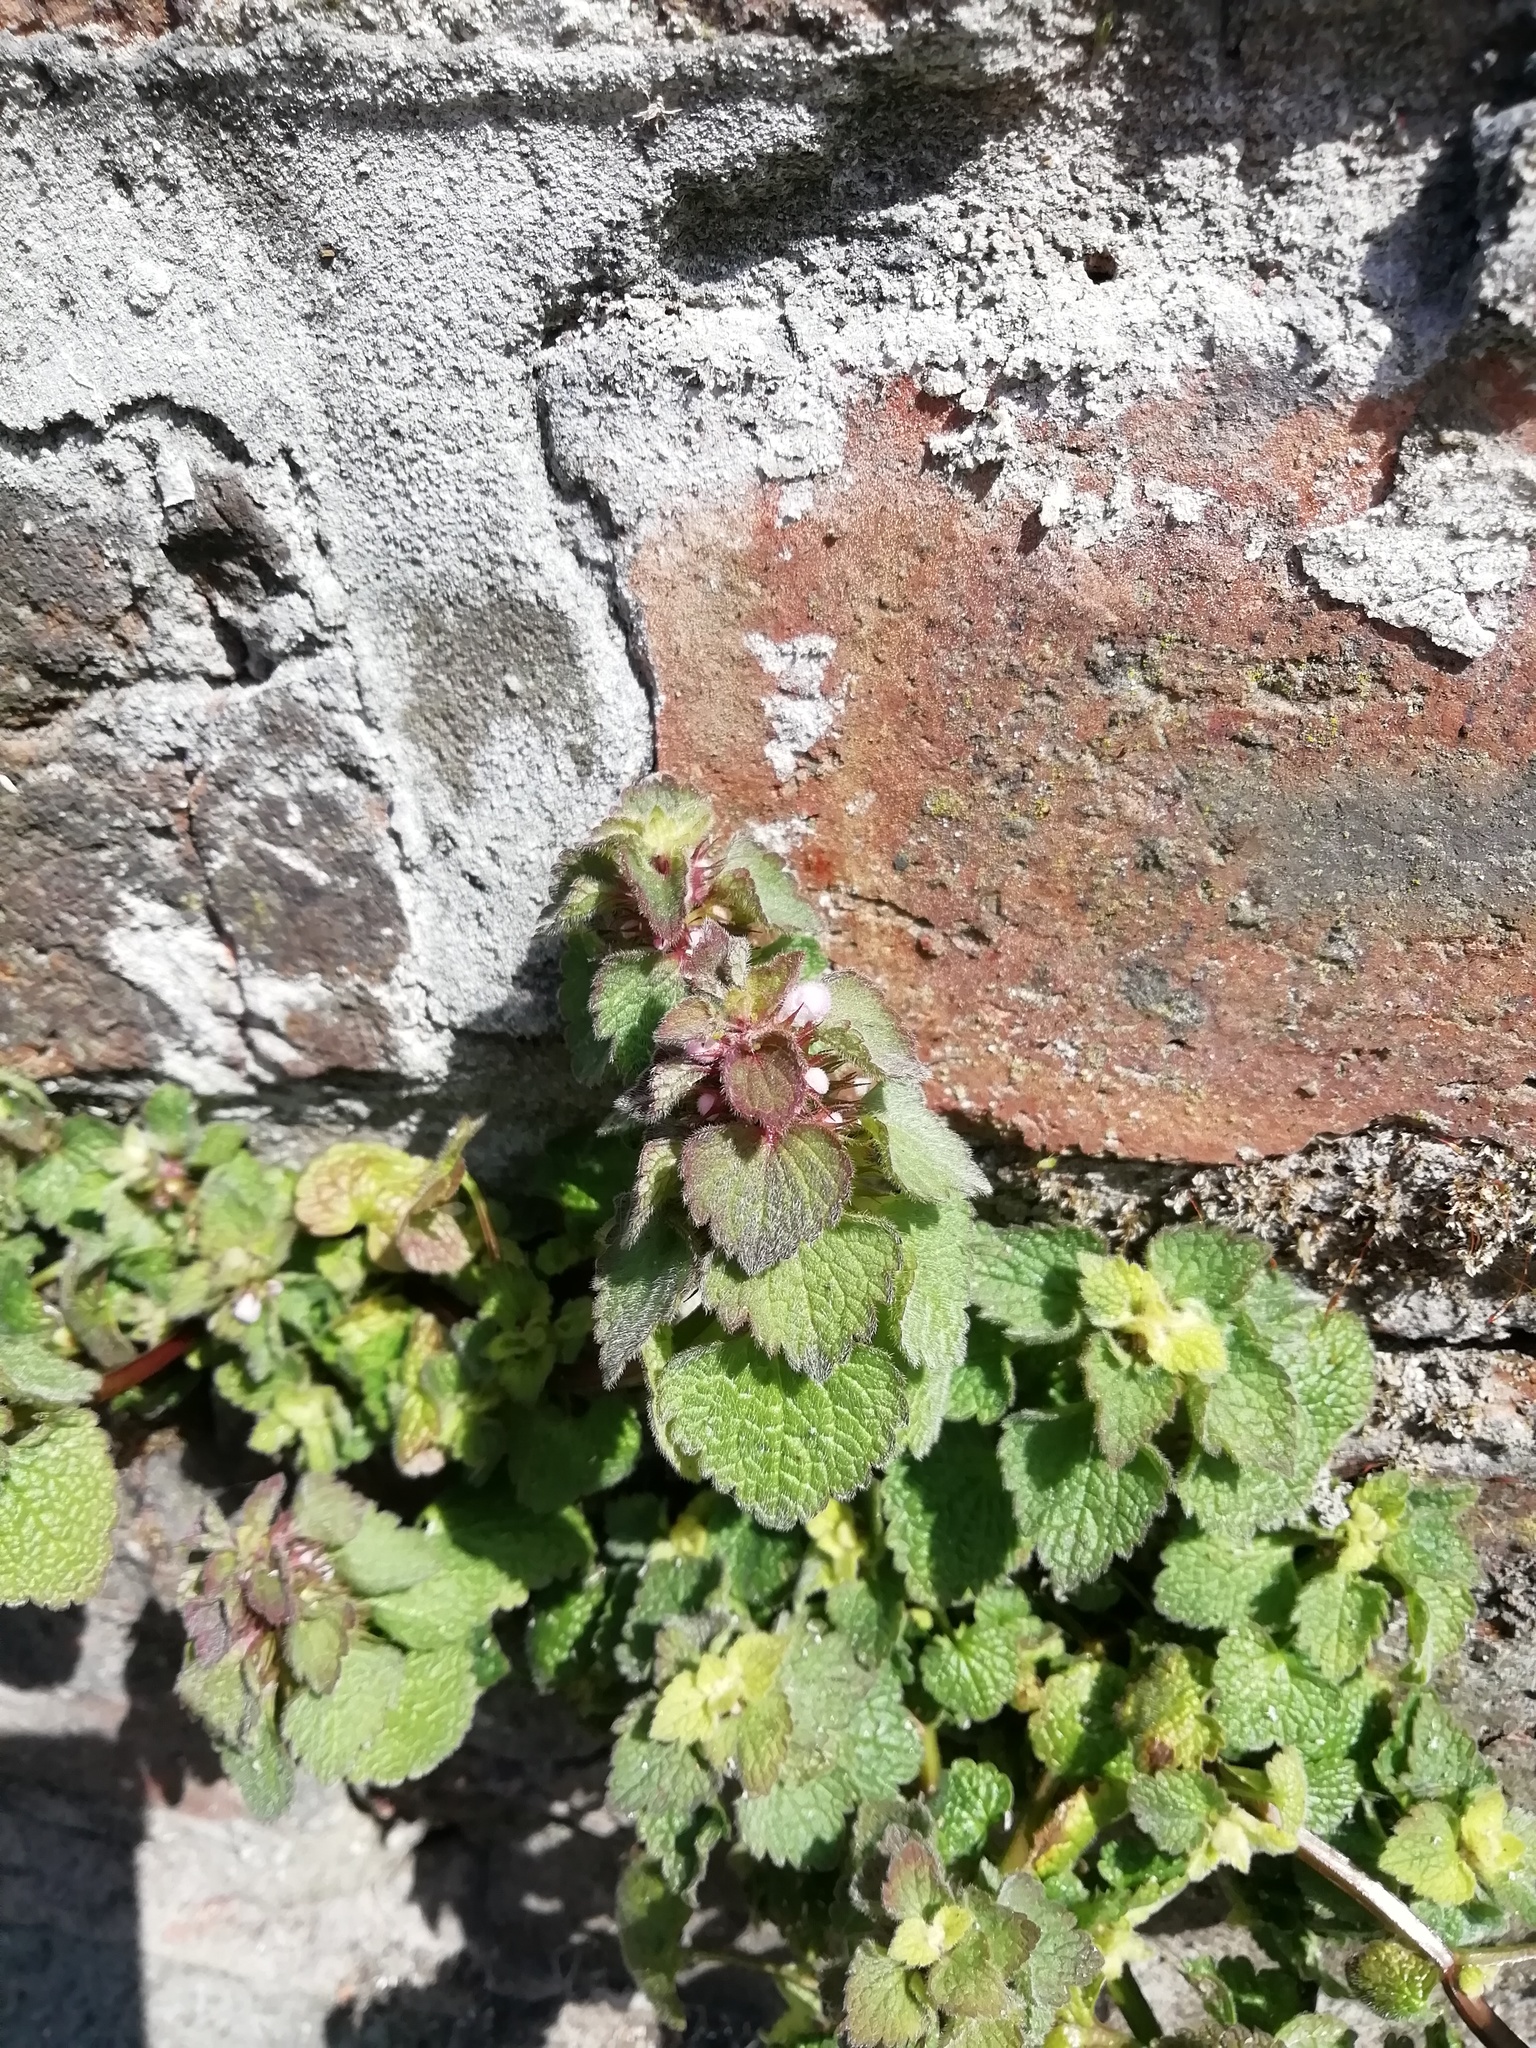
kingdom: Plantae
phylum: Tracheophyta
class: Magnoliopsida
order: Lamiales
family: Lamiaceae
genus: Lamium
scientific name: Lamium purpureum
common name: Red dead-nettle
